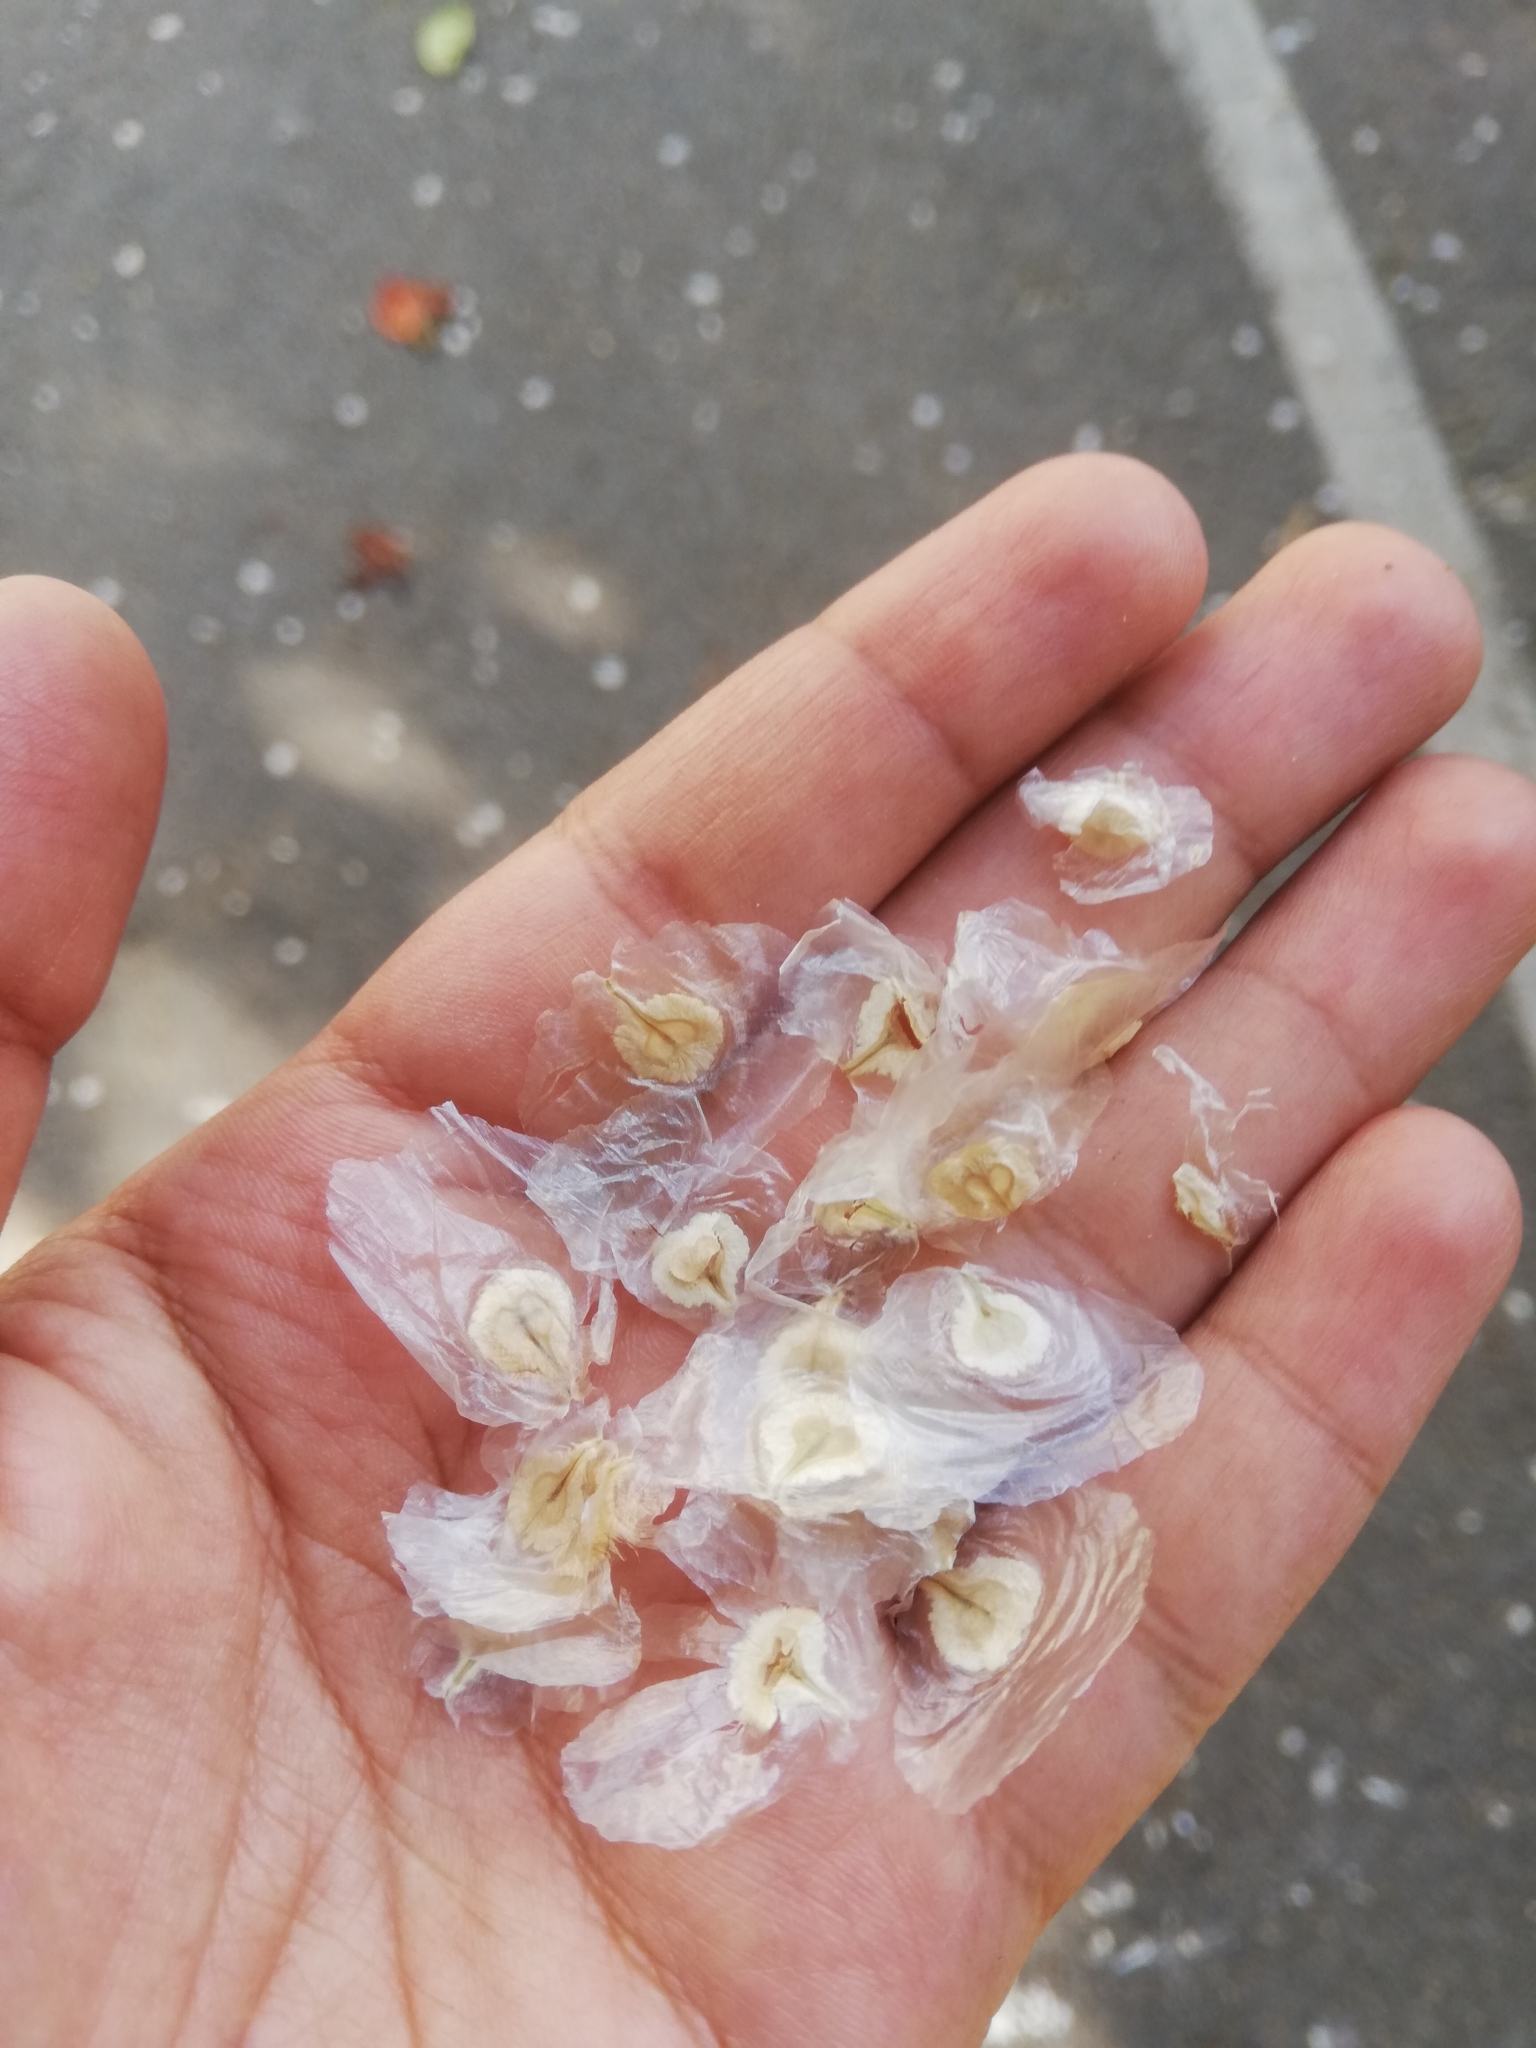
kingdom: Plantae
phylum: Tracheophyta
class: Magnoliopsida
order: Lamiales
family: Bignoniaceae
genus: Spathodea
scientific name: Spathodea campanulata
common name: African tuliptree
